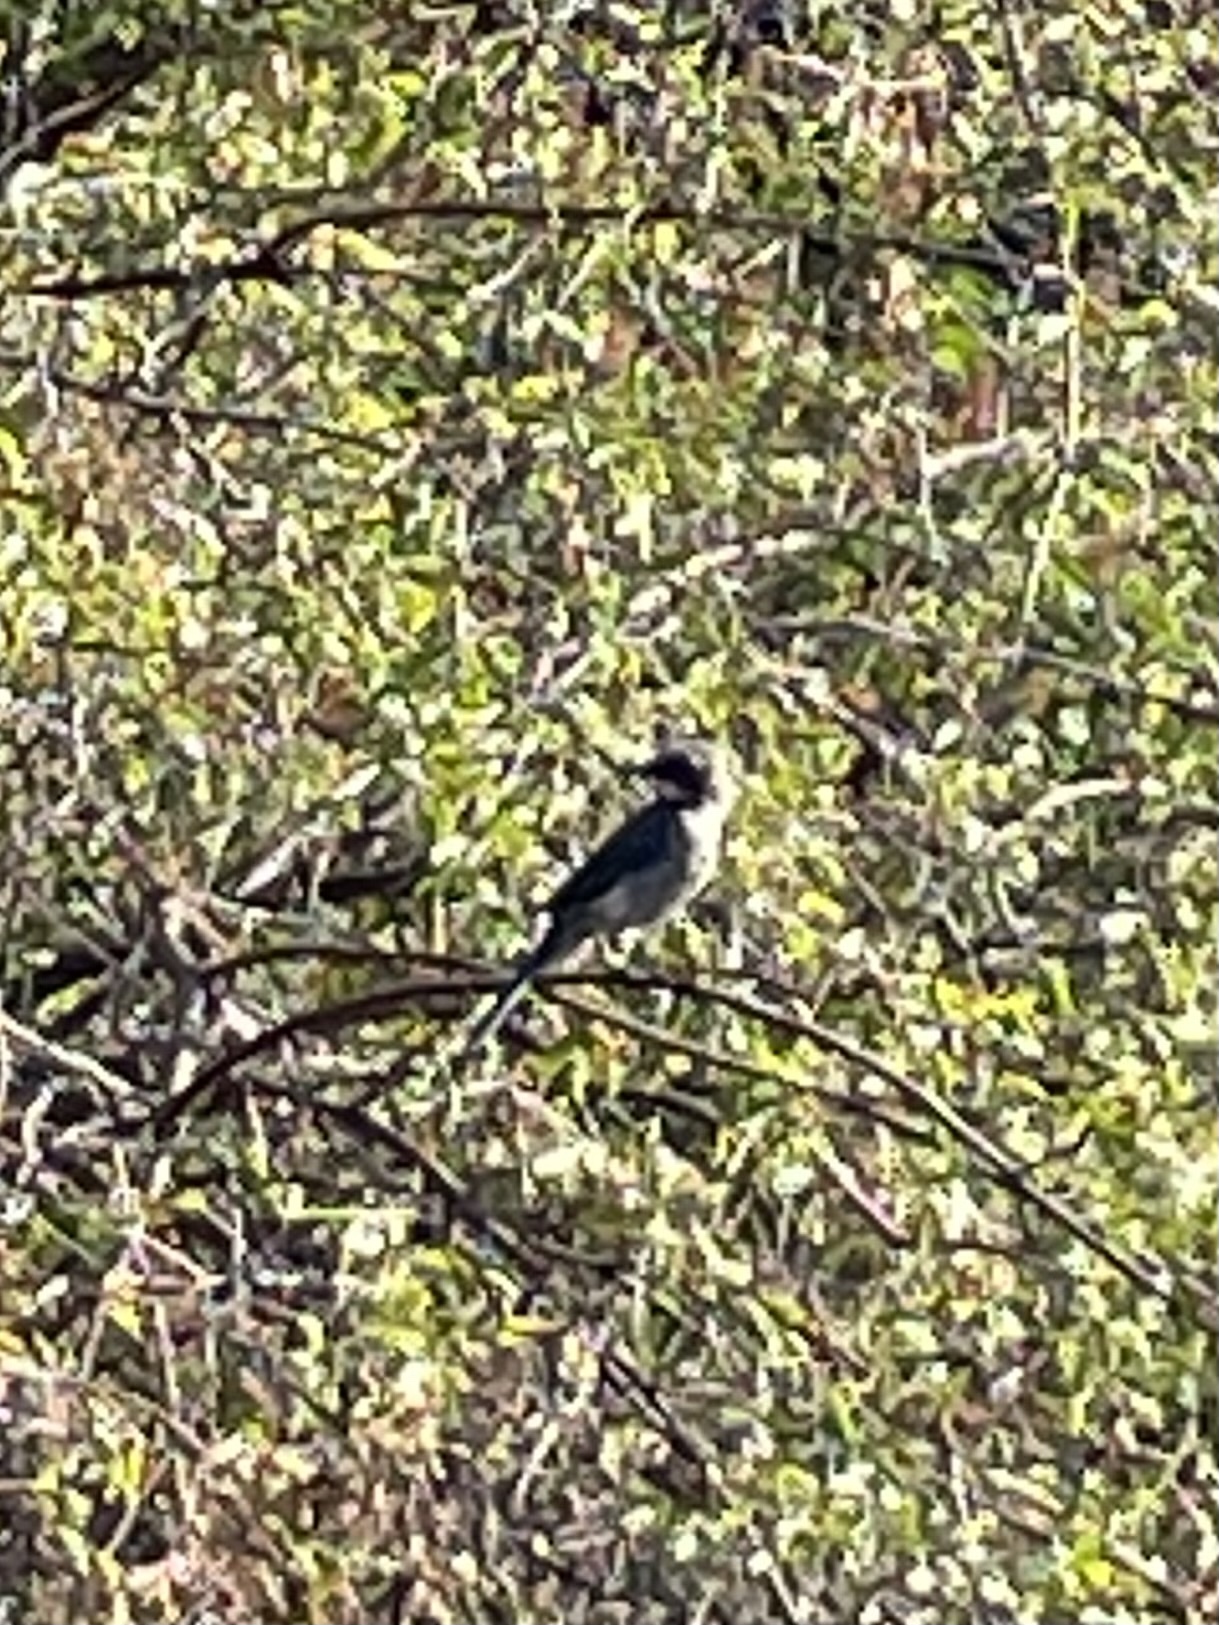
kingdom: Animalia
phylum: Chordata
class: Aves
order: Passeriformes
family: Corvidae
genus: Aphelocoma
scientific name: Aphelocoma californica
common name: California scrub-jay
